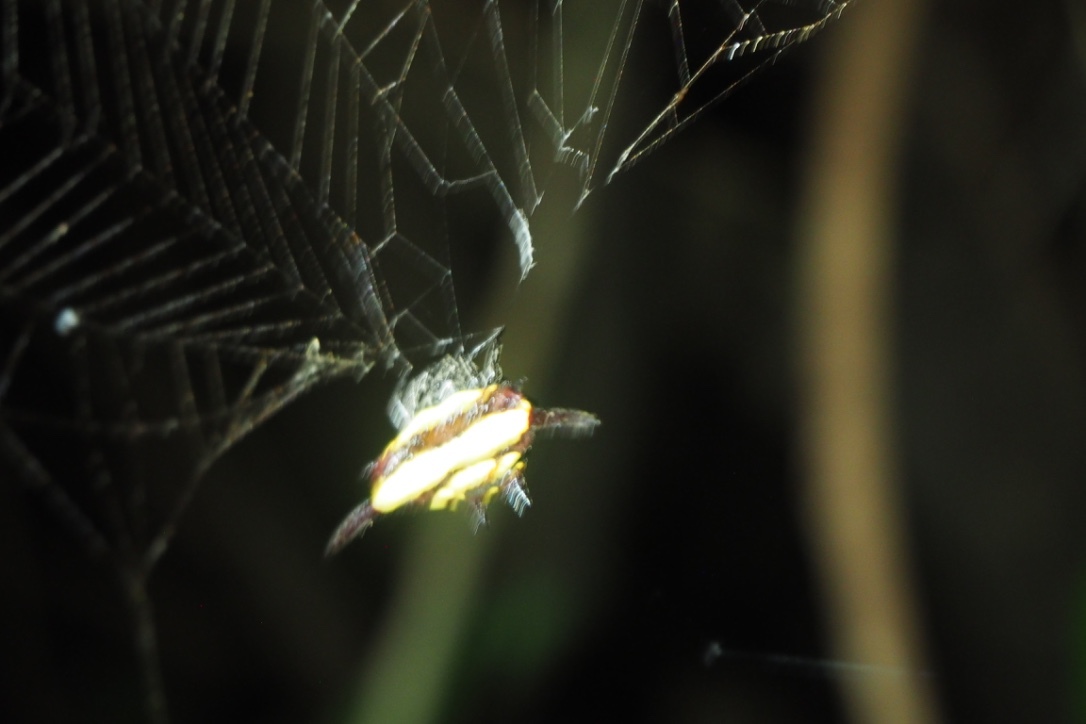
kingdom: Animalia
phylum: Arthropoda
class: Arachnida
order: Araneae
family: Araneidae
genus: Gasteracantha
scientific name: Gasteracantha fornicata
